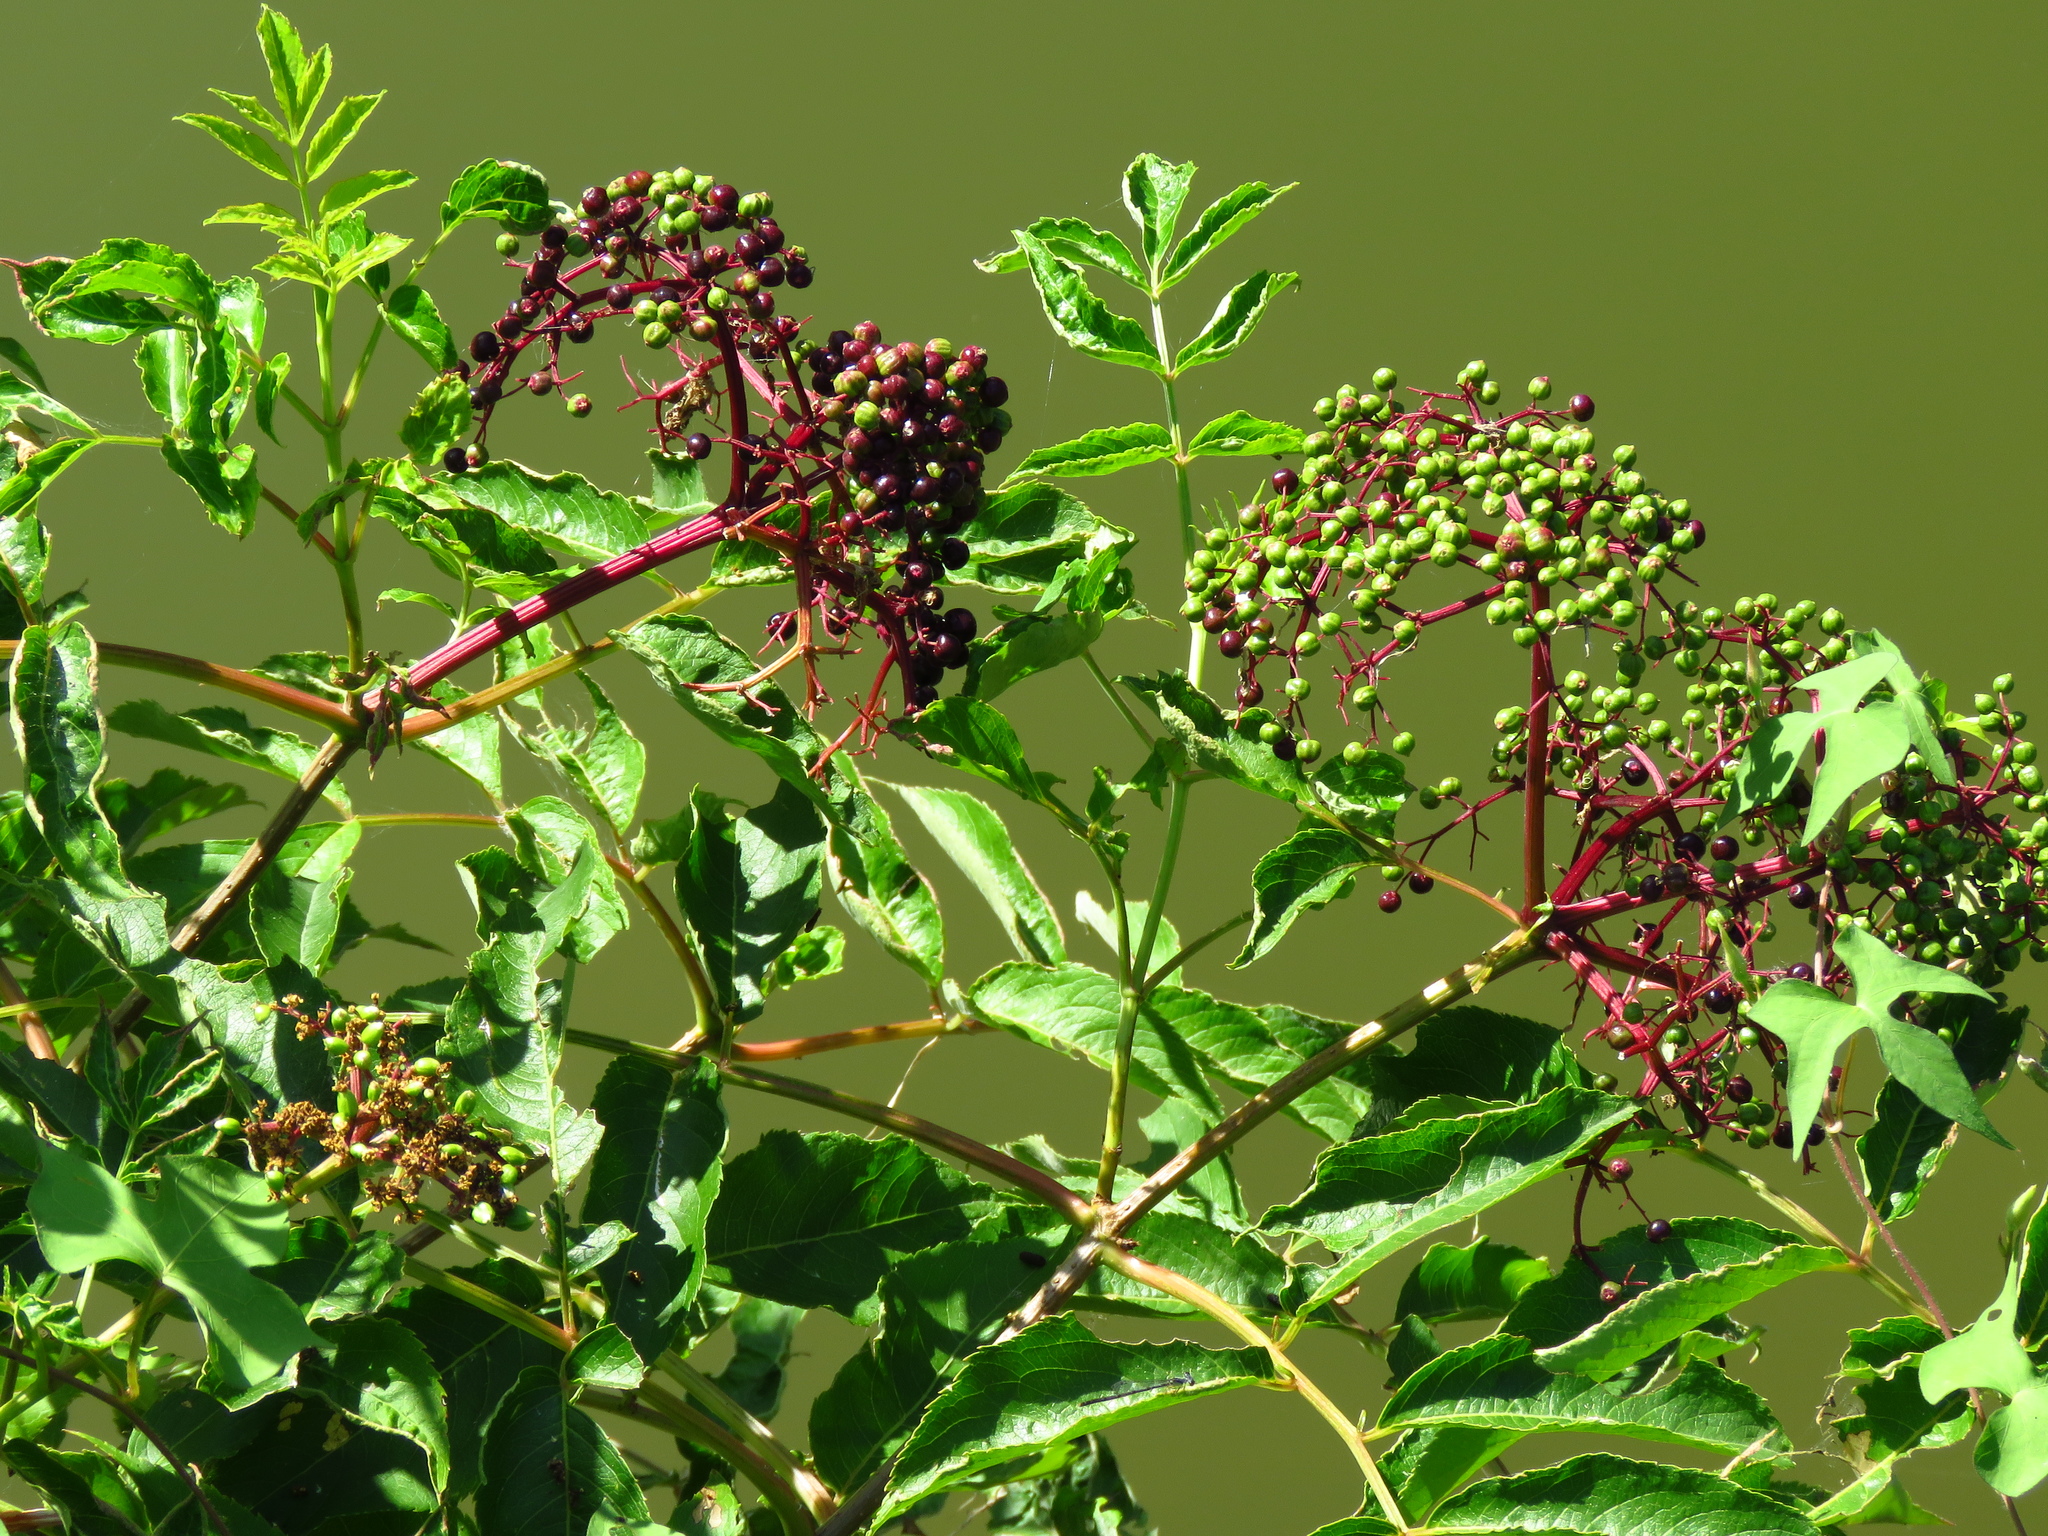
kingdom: Plantae
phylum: Tracheophyta
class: Magnoliopsida
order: Dipsacales
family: Viburnaceae
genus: Sambucus
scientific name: Sambucus canadensis
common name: American elder
